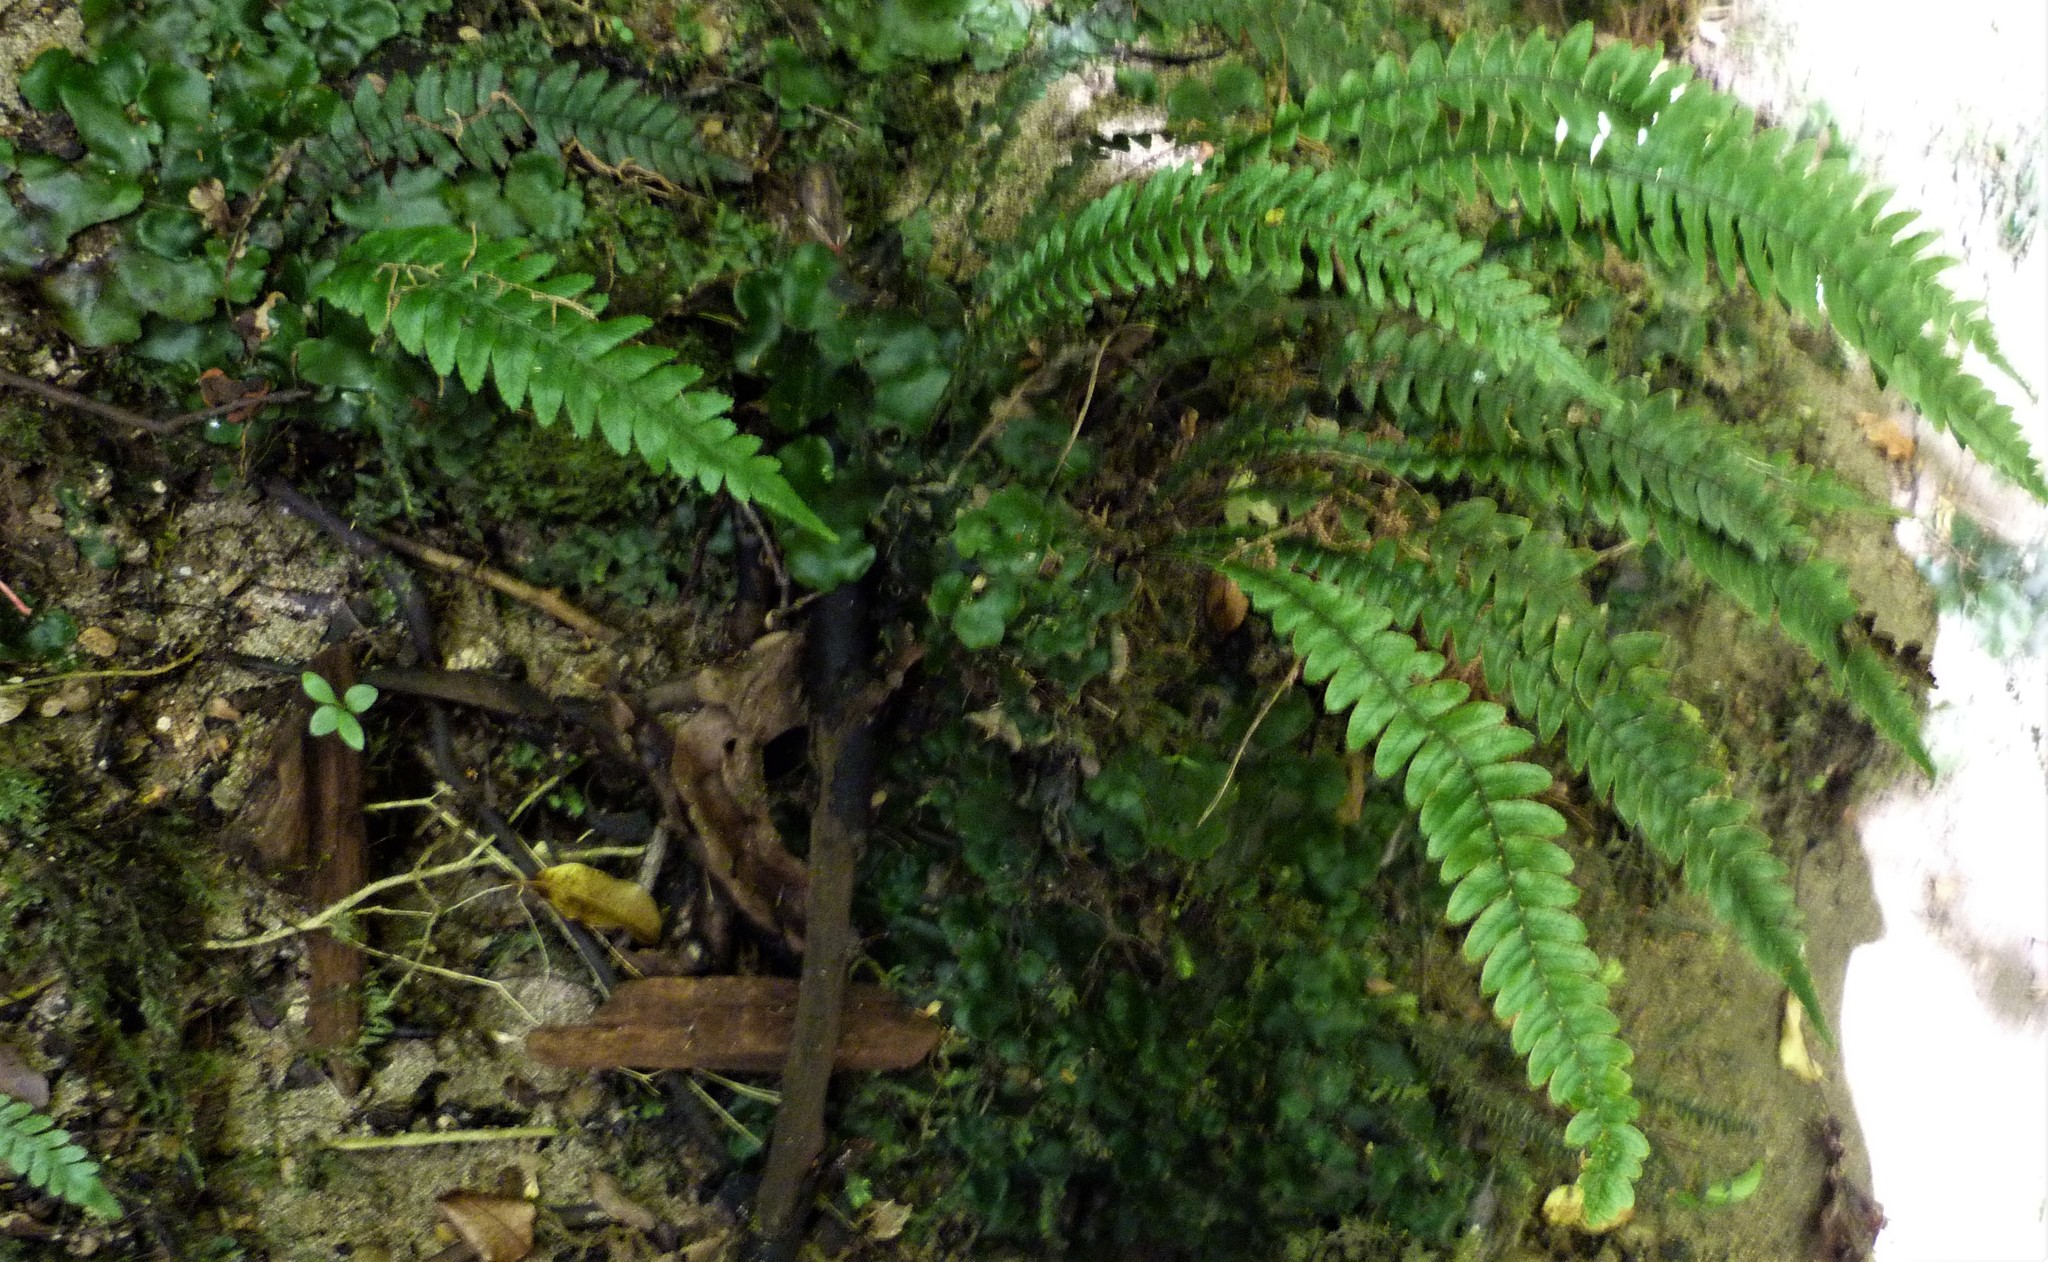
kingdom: Plantae
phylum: Tracheophyta
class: Polypodiopsida
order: Polypodiales
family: Blechnaceae
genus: Austroblechnum
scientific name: Austroblechnum lanceolatum
